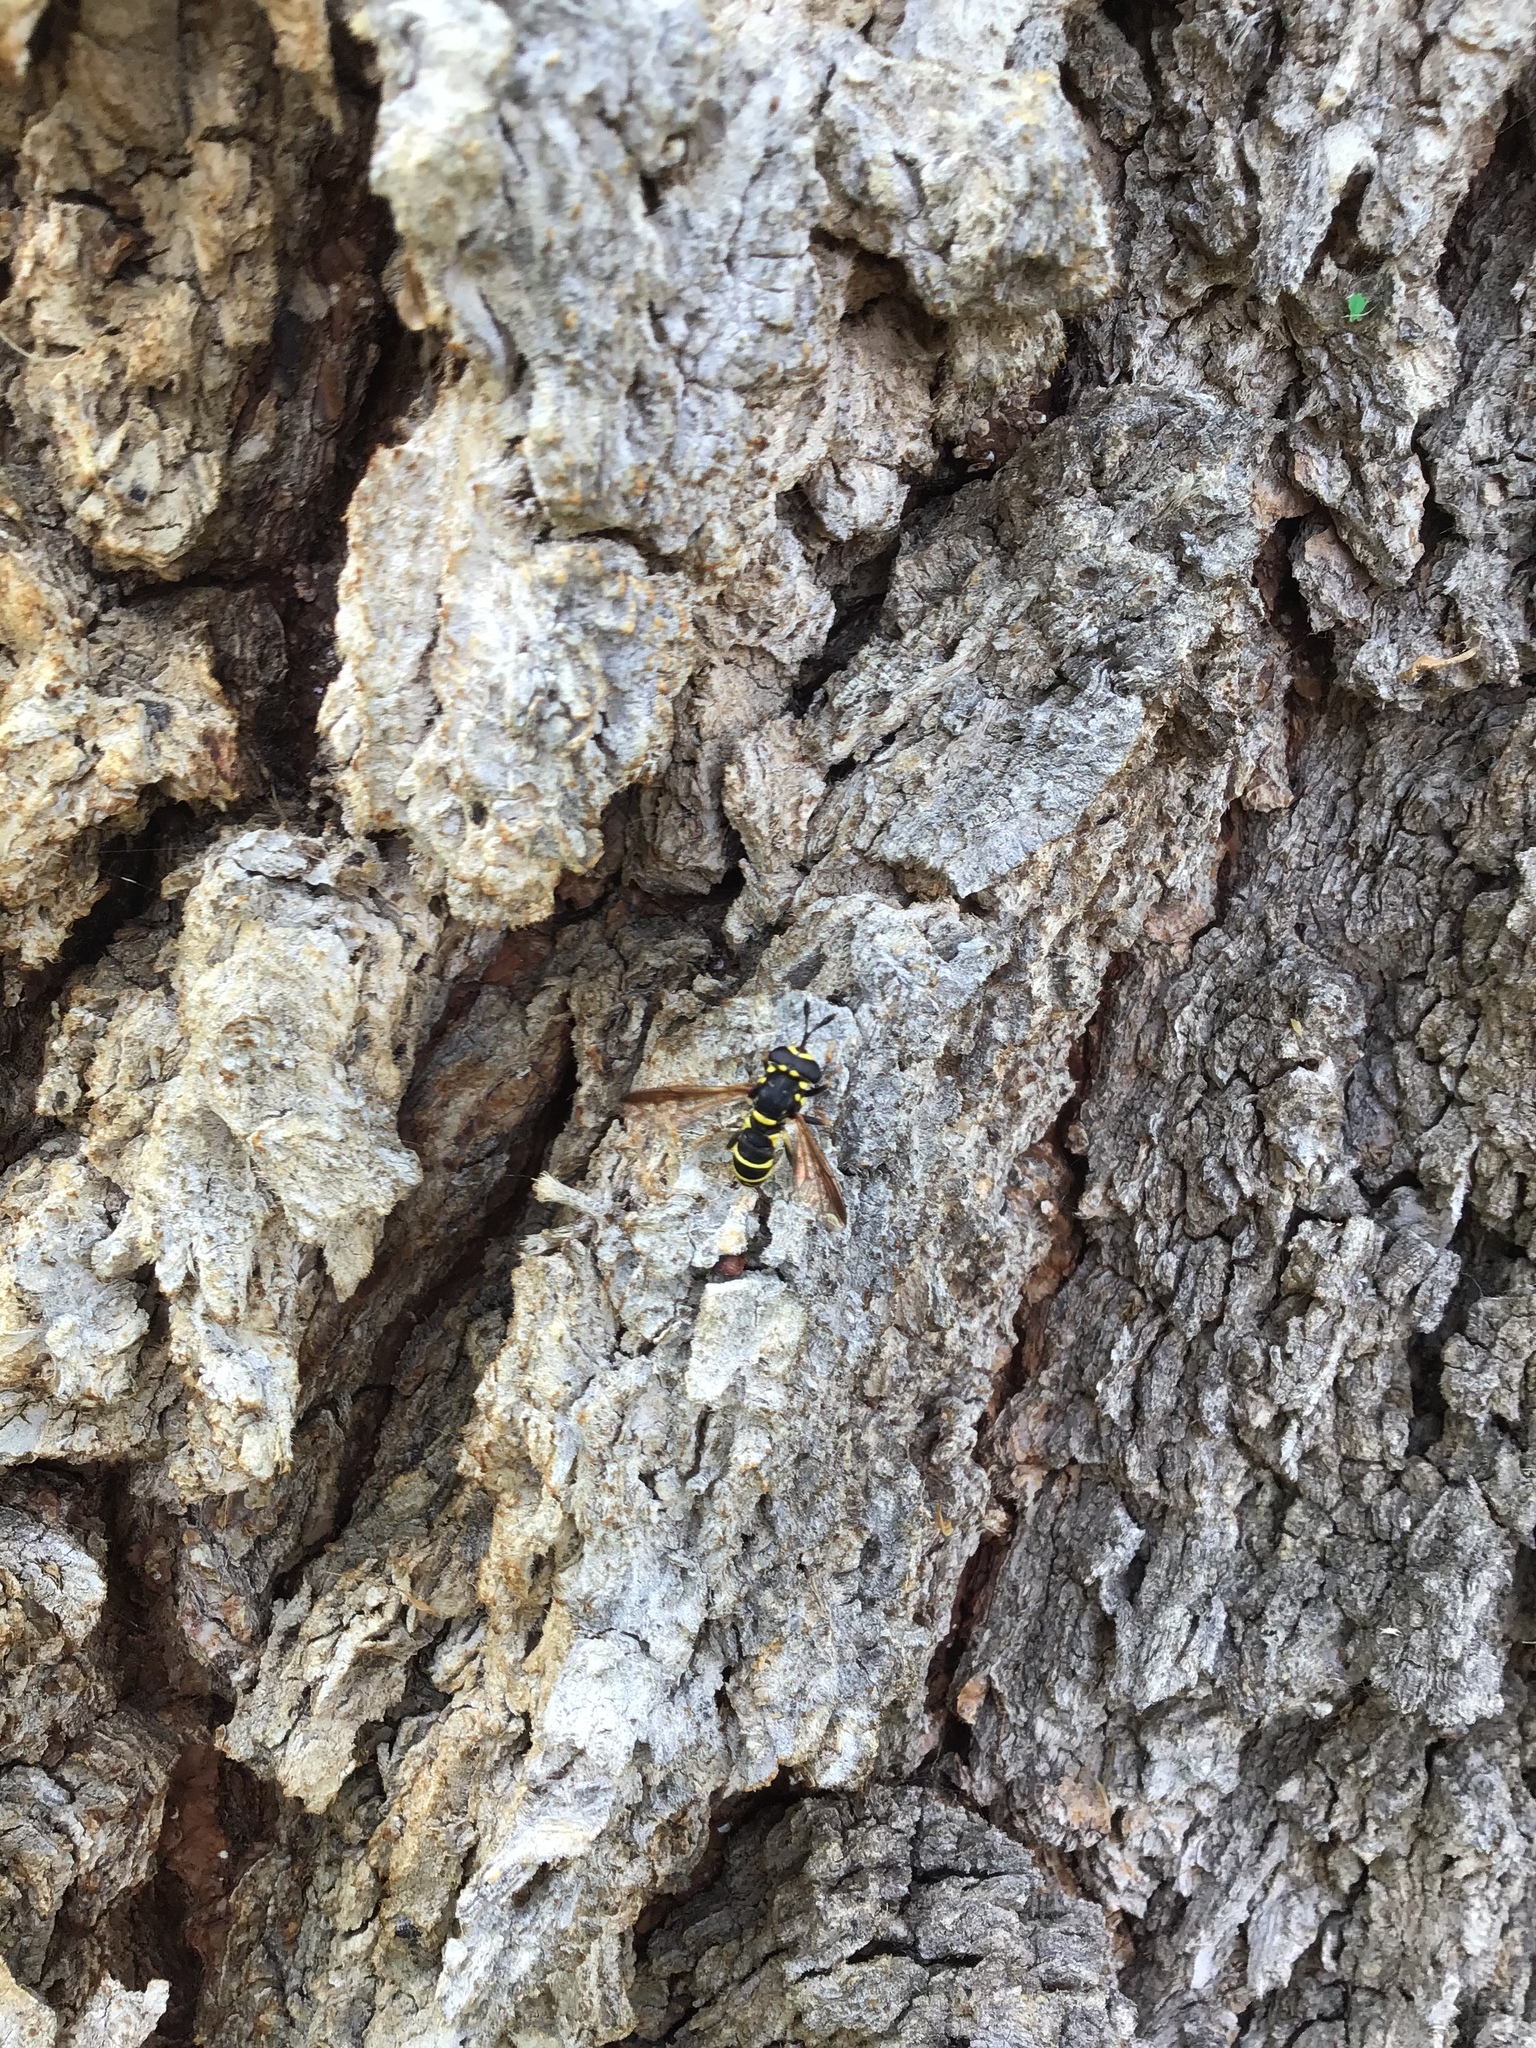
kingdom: Animalia
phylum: Arthropoda
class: Insecta
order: Diptera
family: Syrphidae
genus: Ceriana
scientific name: Ceriana tridens
